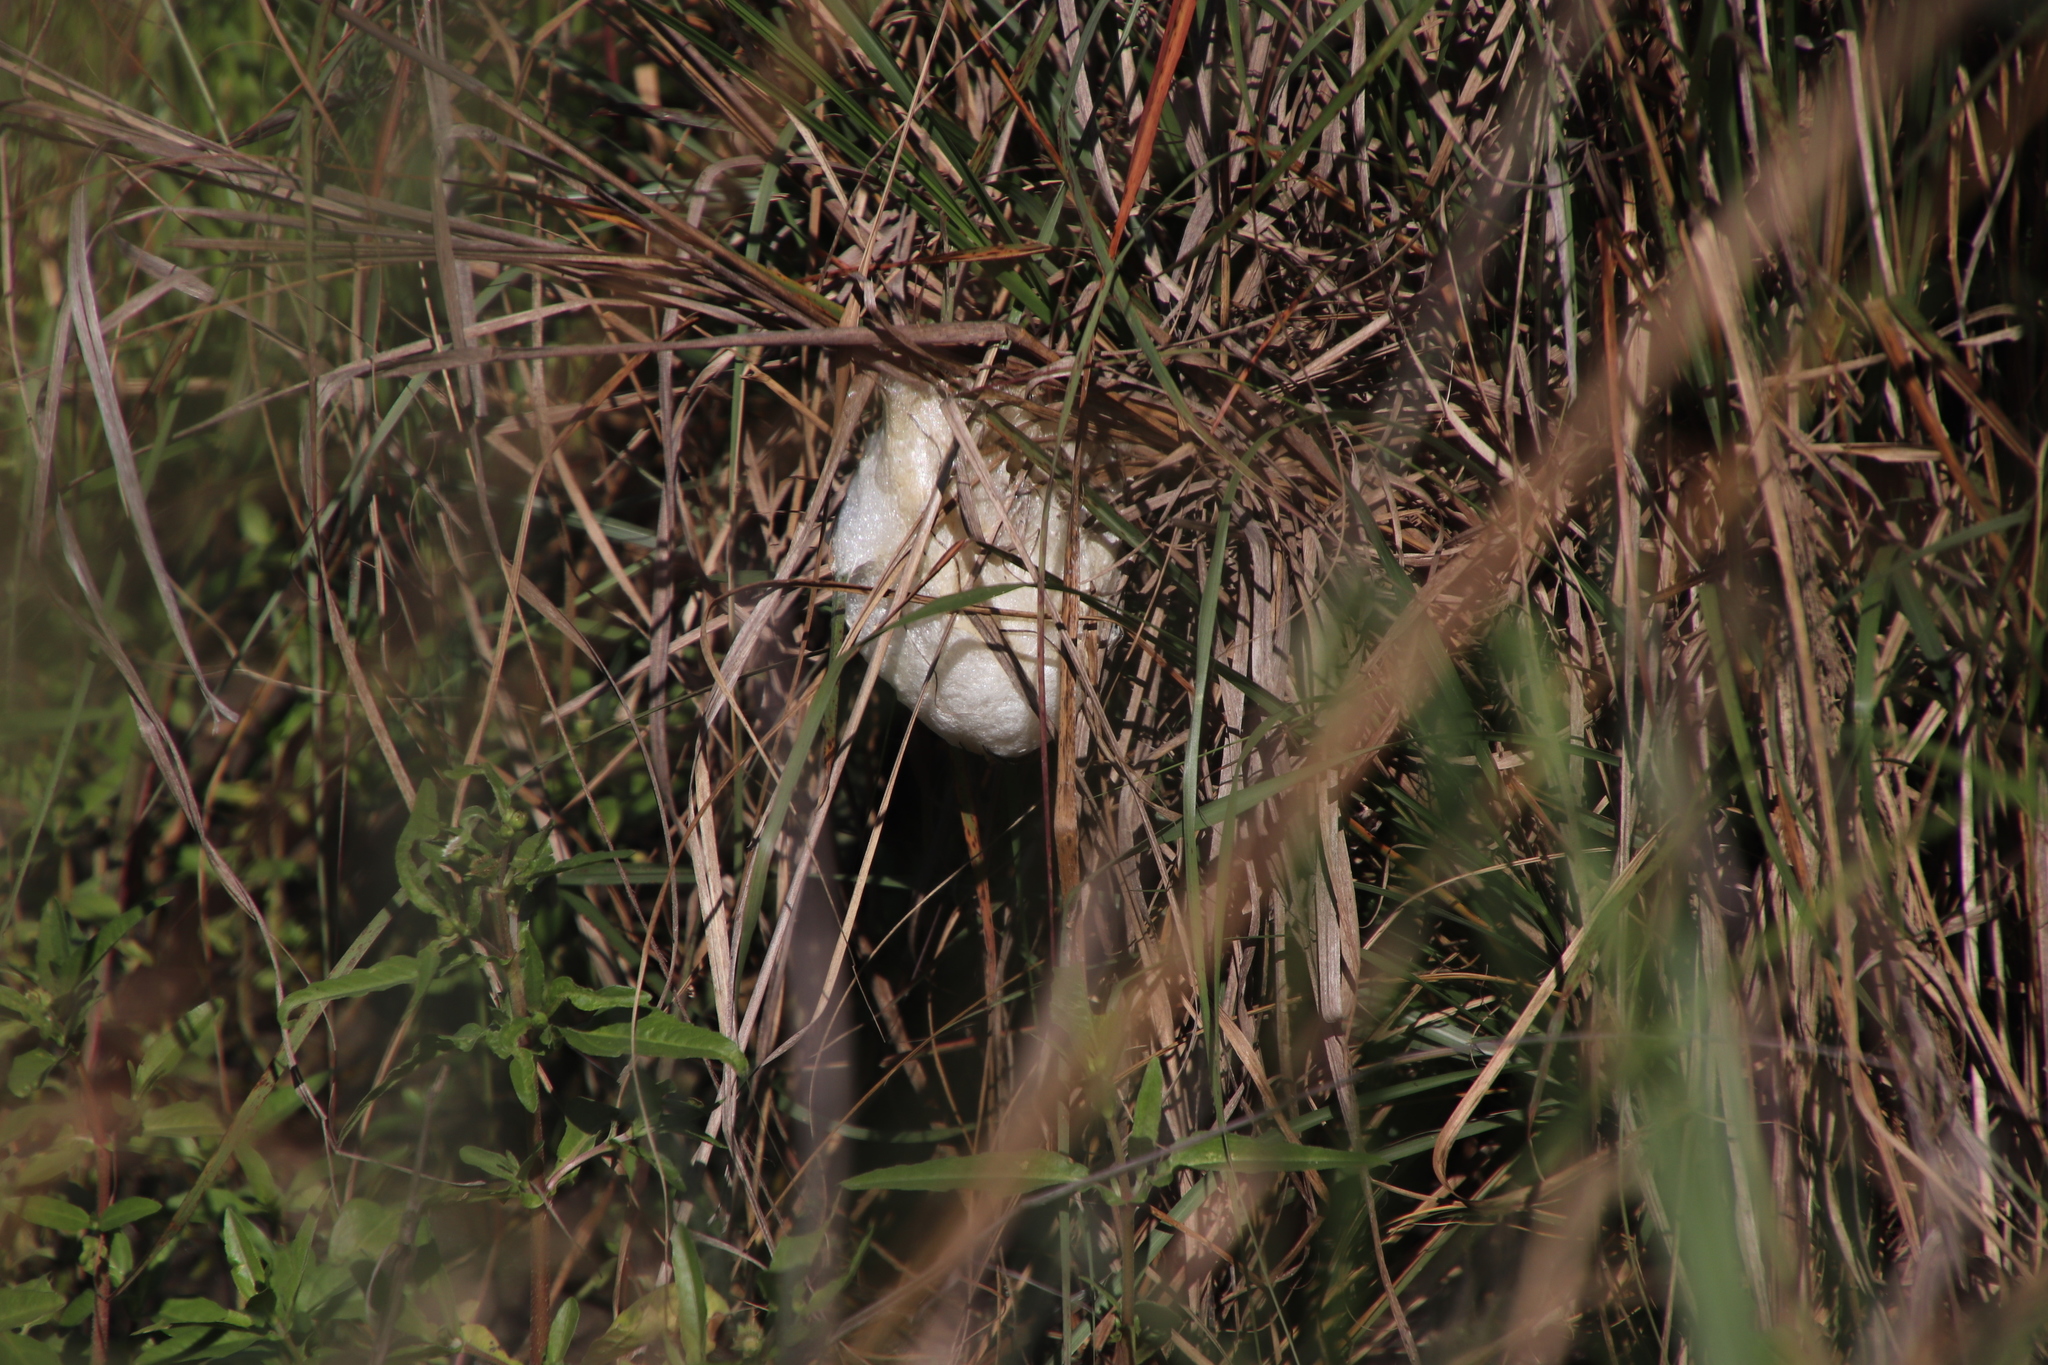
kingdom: Animalia
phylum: Chordata
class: Amphibia
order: Anura
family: Rhacophoridae
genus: Chiromantis
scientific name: Chiromantis xerampelina
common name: African gray treefrog
